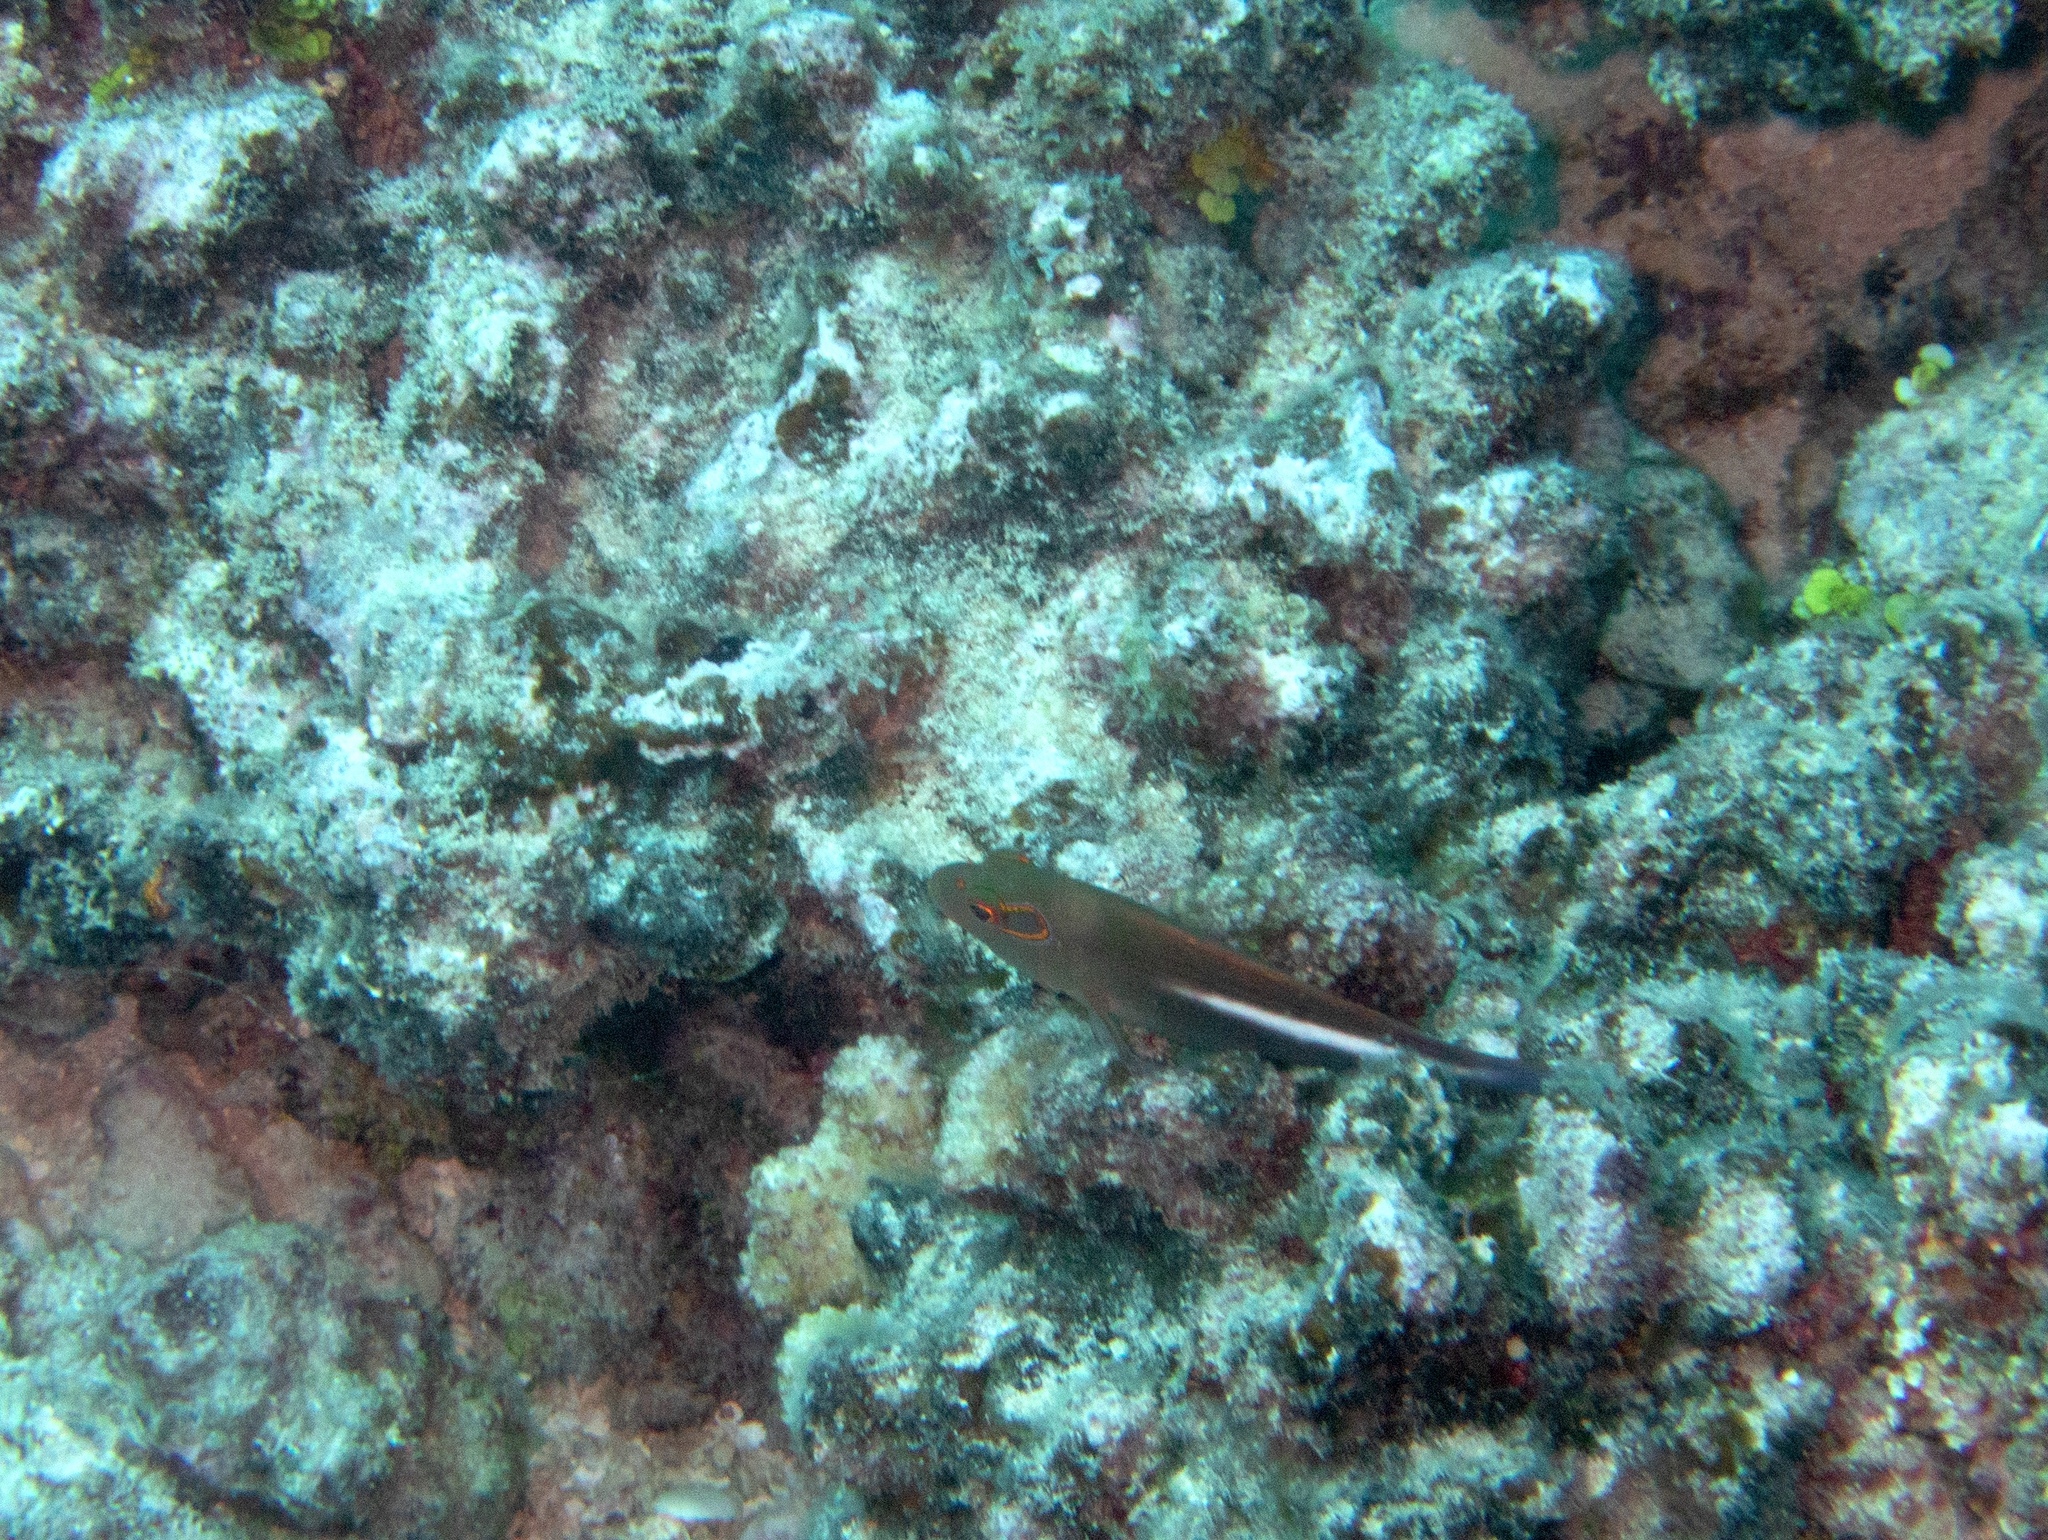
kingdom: Animalia
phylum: Chordata
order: Perciformes
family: Cirrhitidae
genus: Paracirrhites
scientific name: Paracirrhites arcatus
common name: Arc-eye hawkfish
